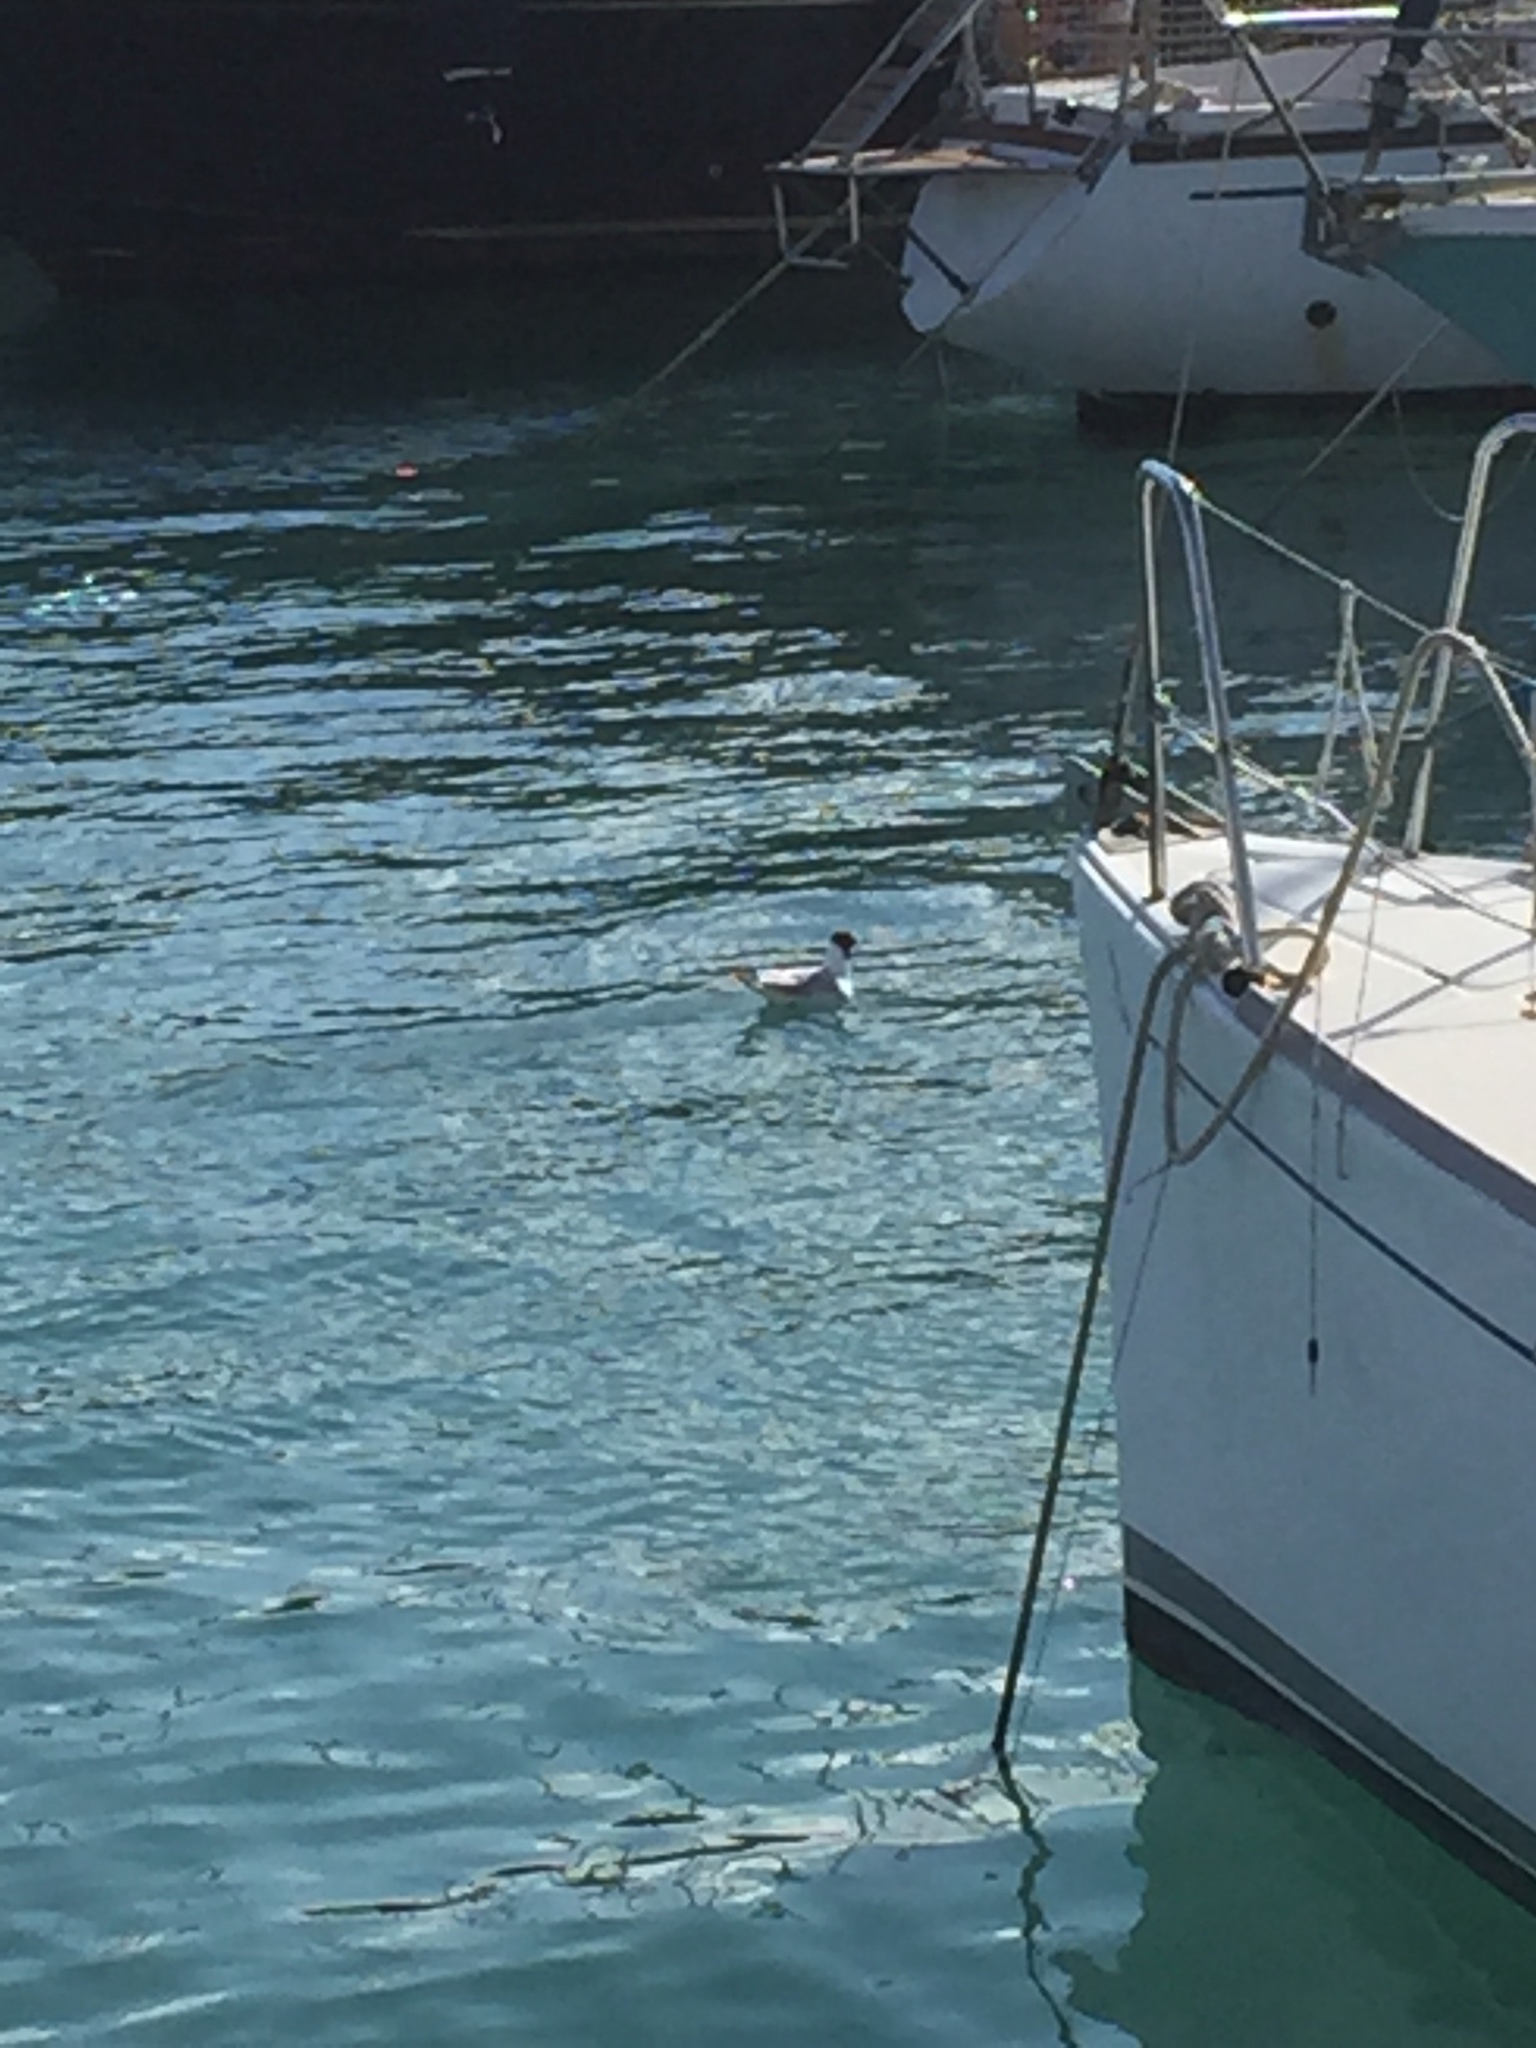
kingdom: Animalia
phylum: Chordata
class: Aves
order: Charadriiformes
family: Laridae
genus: Chroicocephalus
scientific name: Chroicocephalus ridibundus
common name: Black-headed gull
